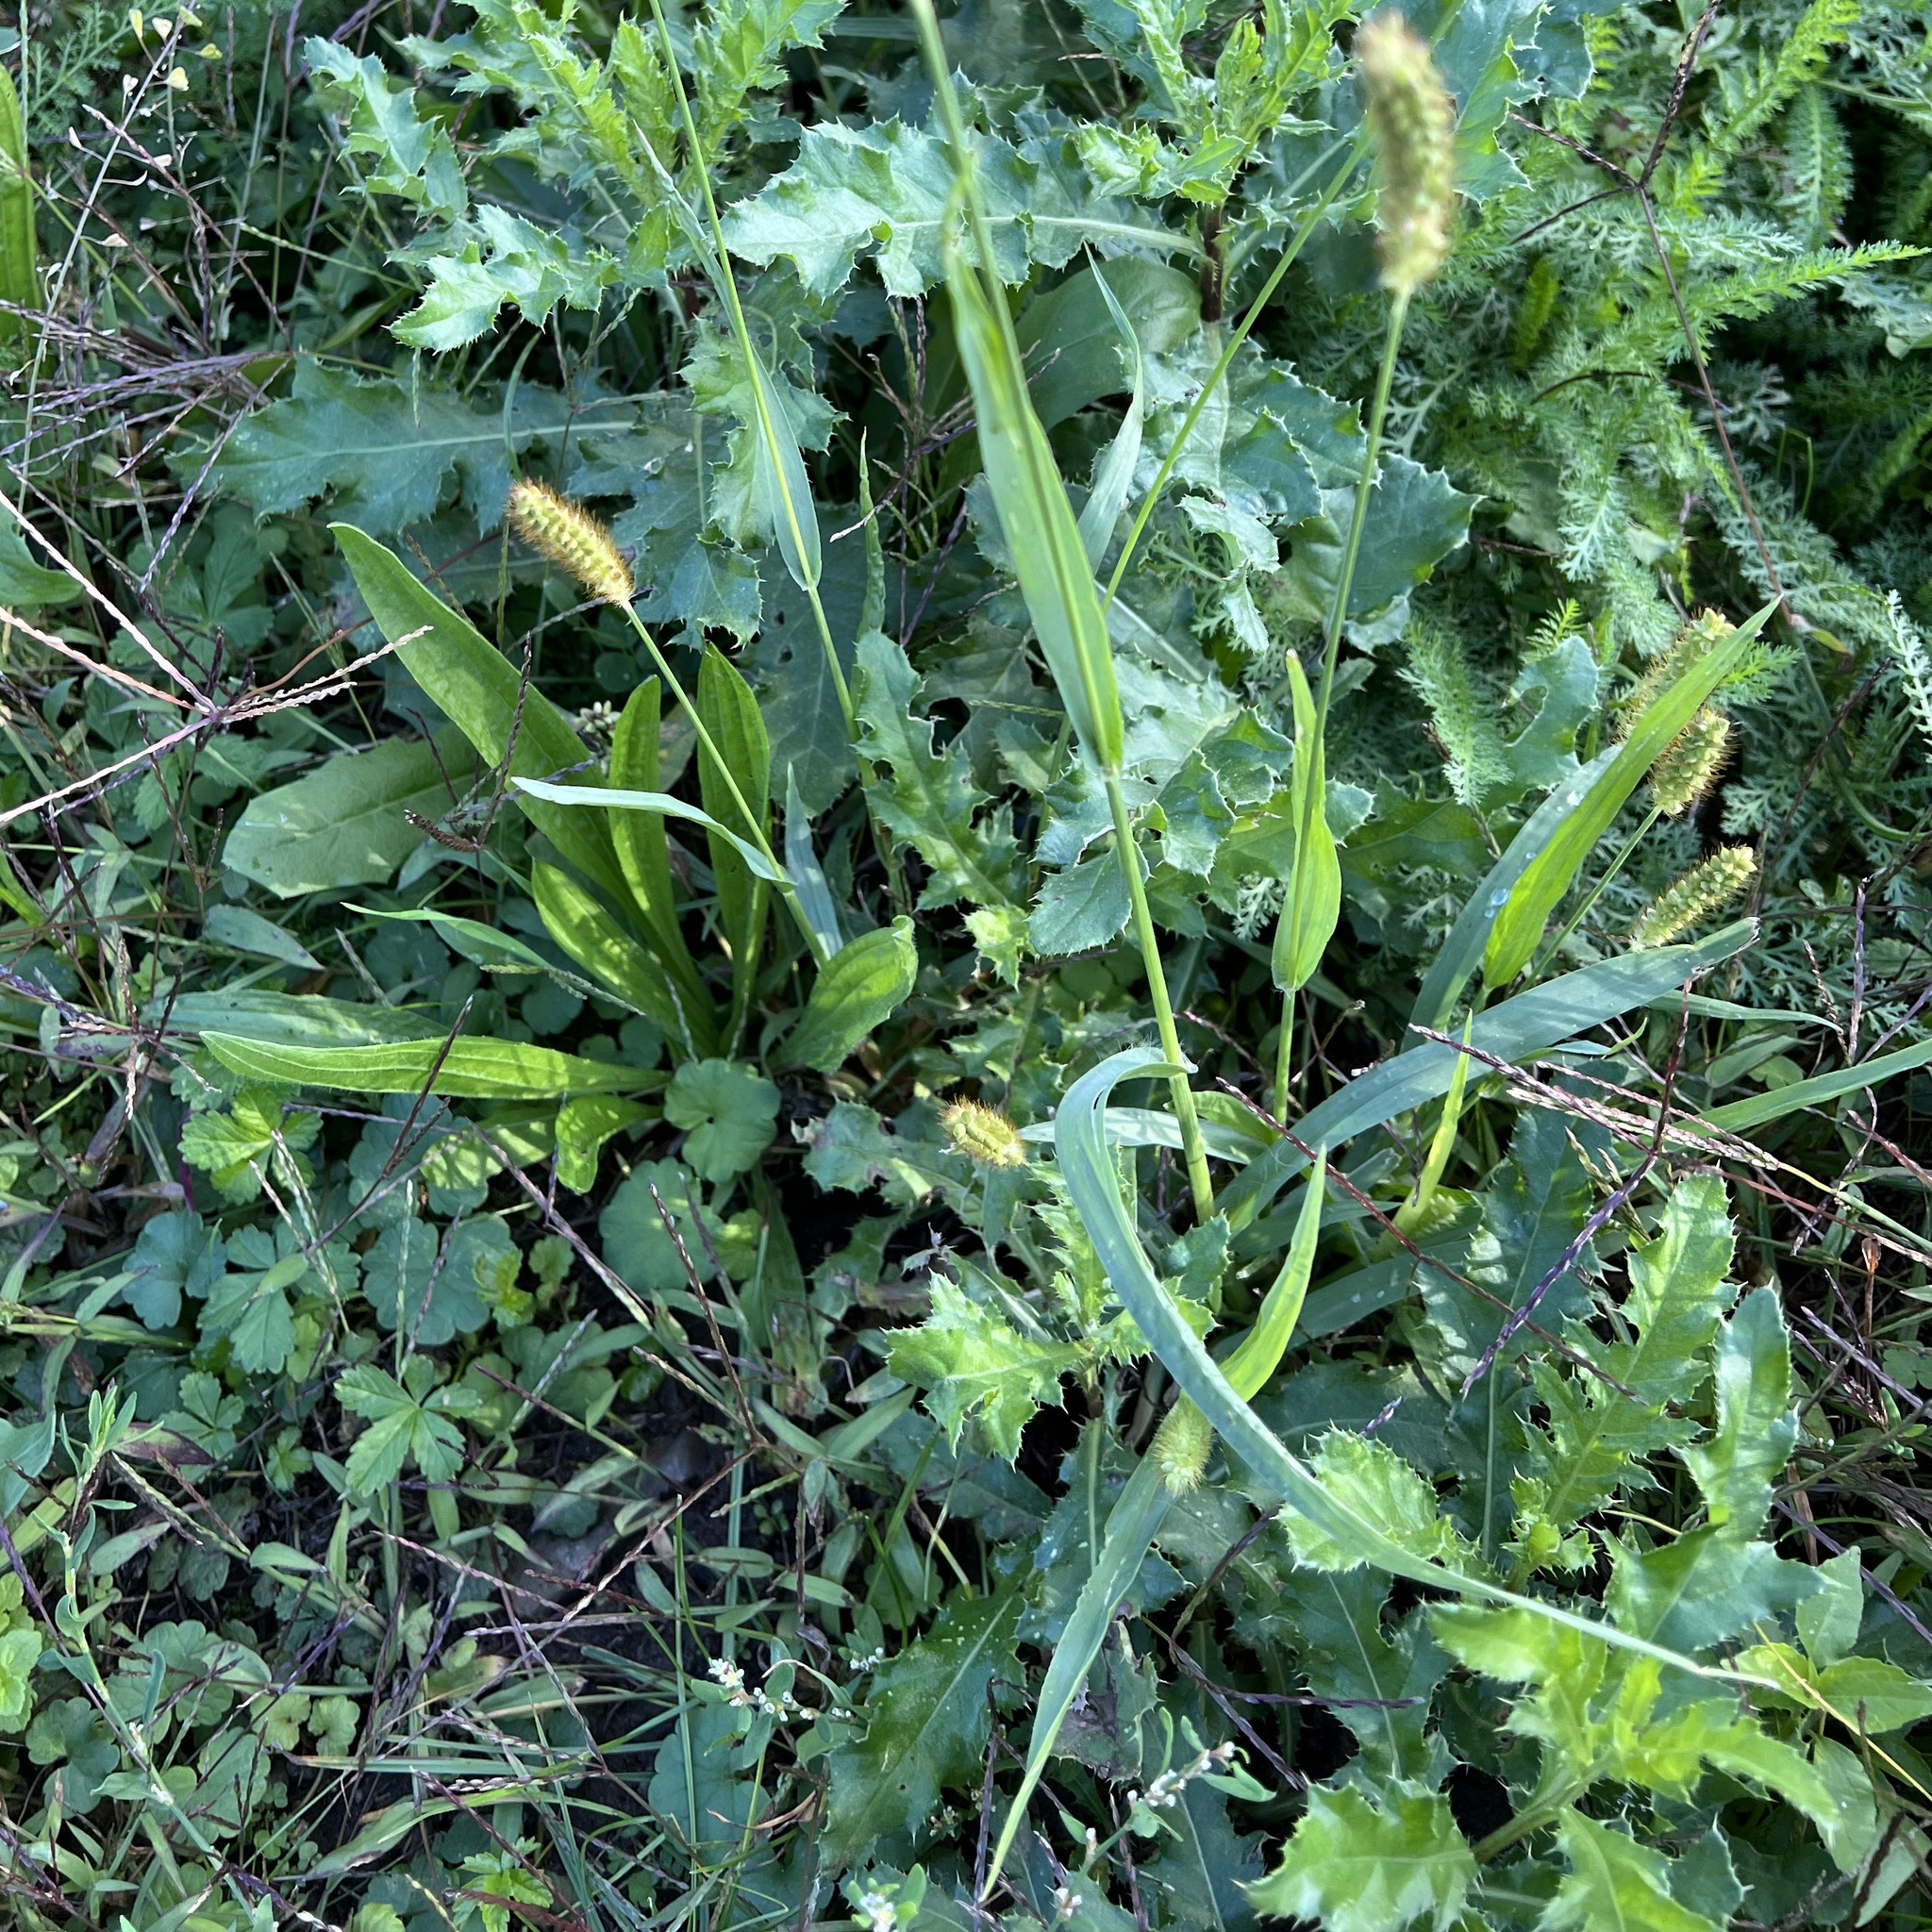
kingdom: Plantae
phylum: Tracheophyta
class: Liliopsida
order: Poales
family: Poaceae
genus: Setaria
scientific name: Setaria pumila
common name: Yellow bristle-grass
